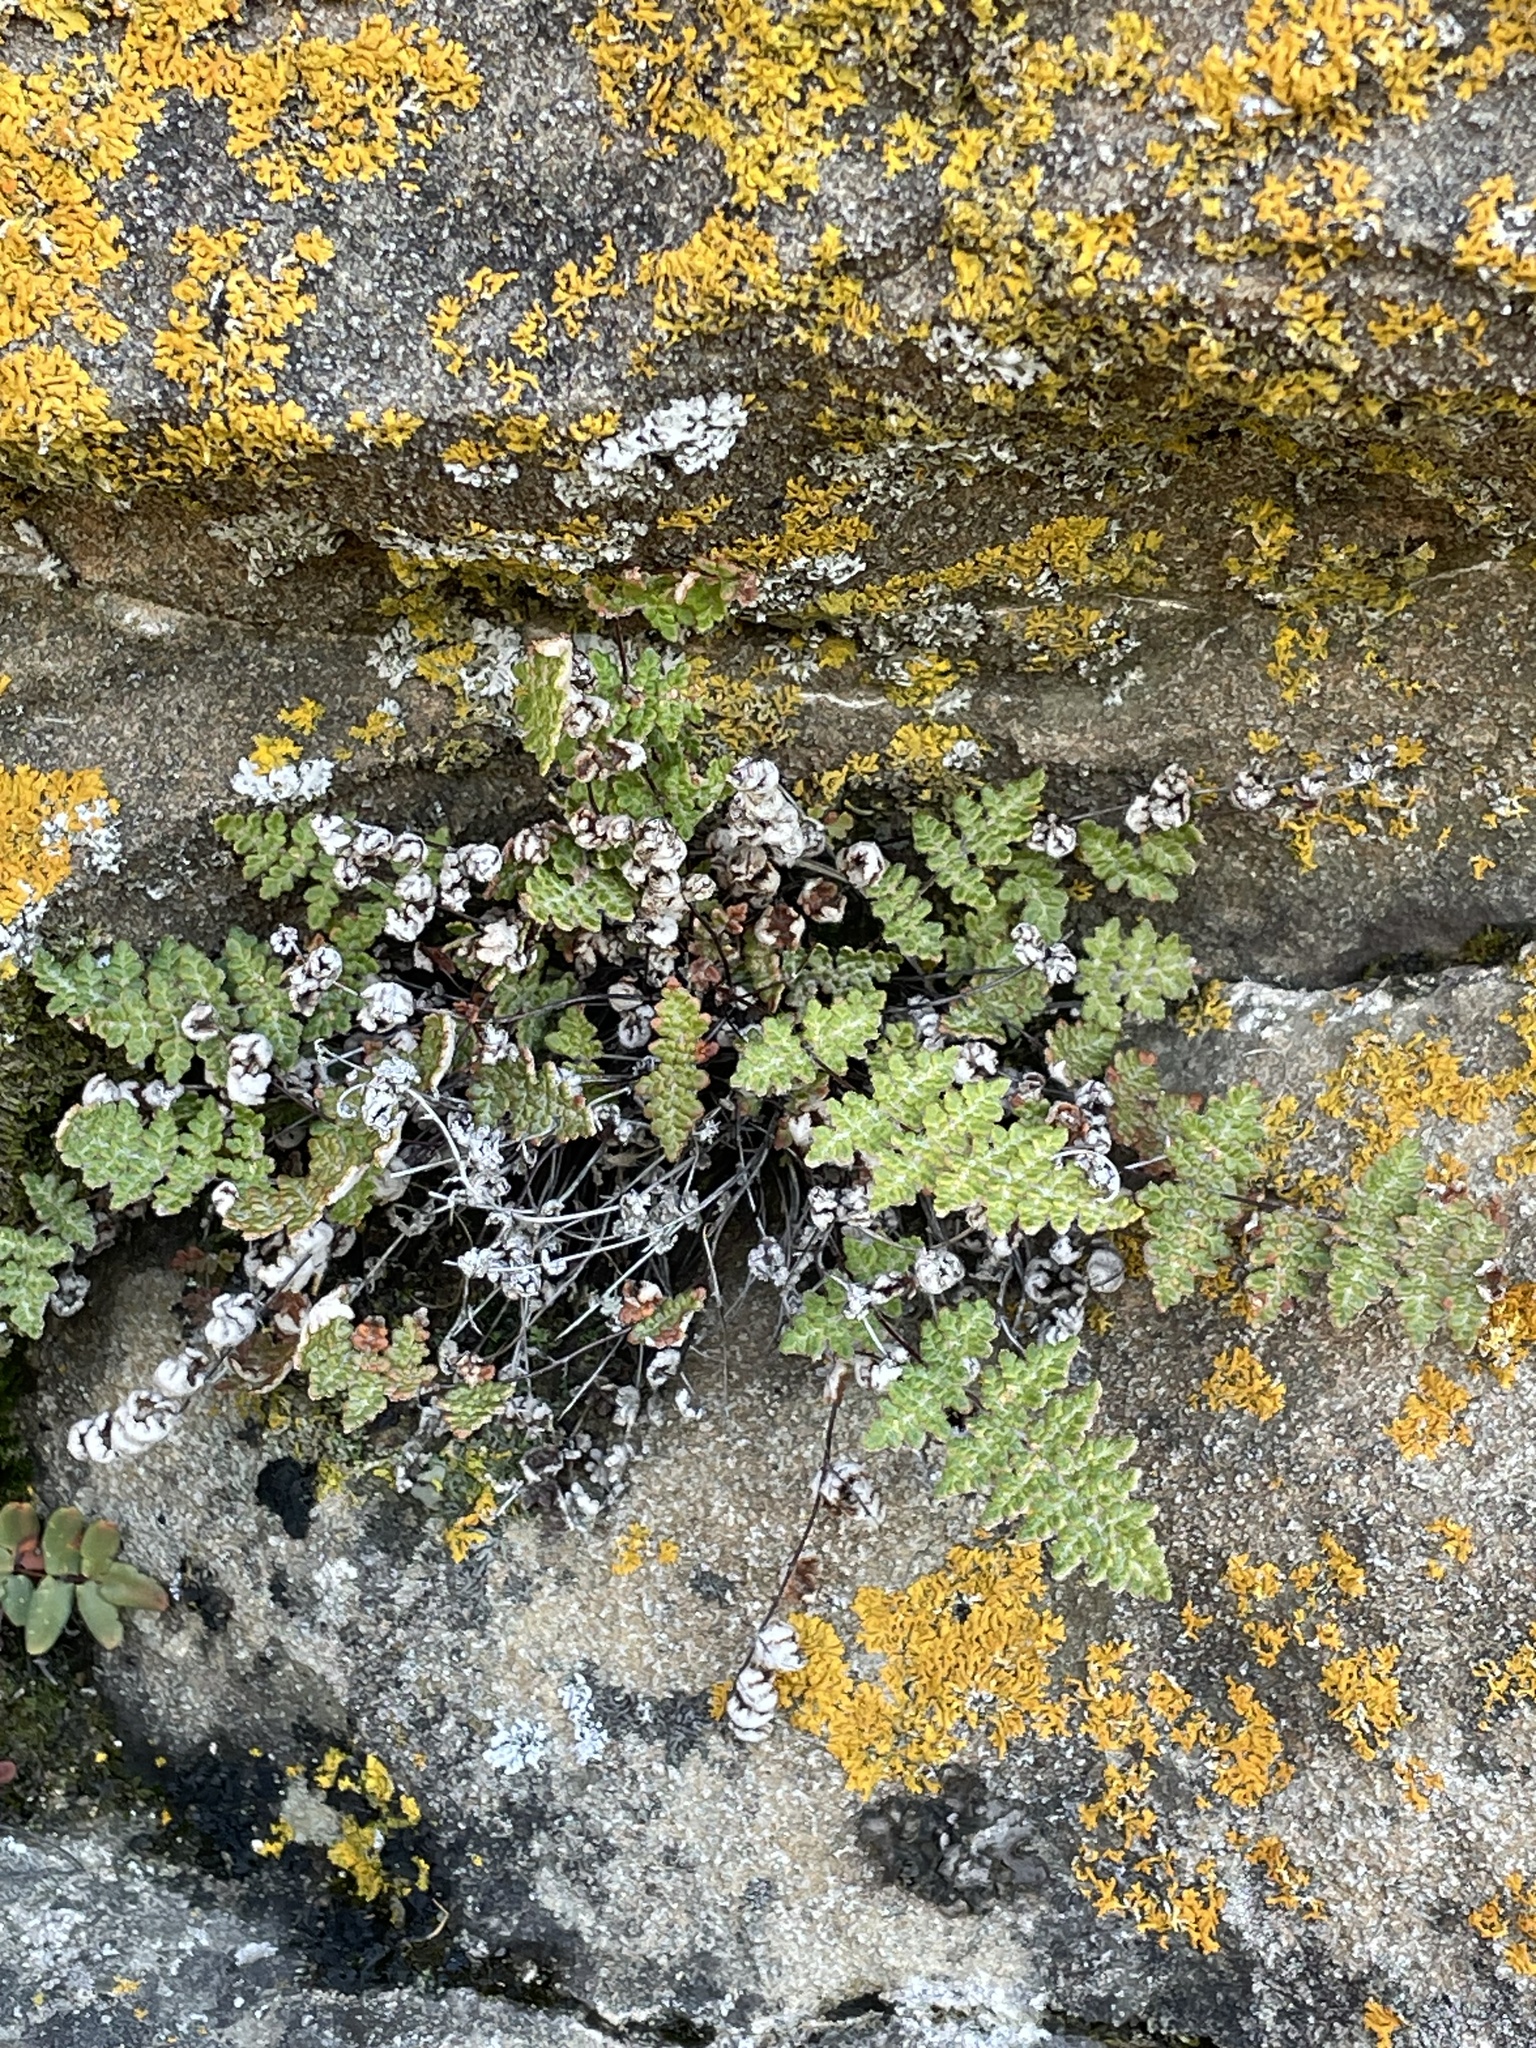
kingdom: Plantae
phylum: Tracheophyta
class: Polypodiopsida
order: Polypodiales
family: Pteridaceae
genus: Myriopteris
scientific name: Myriopteris gracilis
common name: Fee's lip fern
